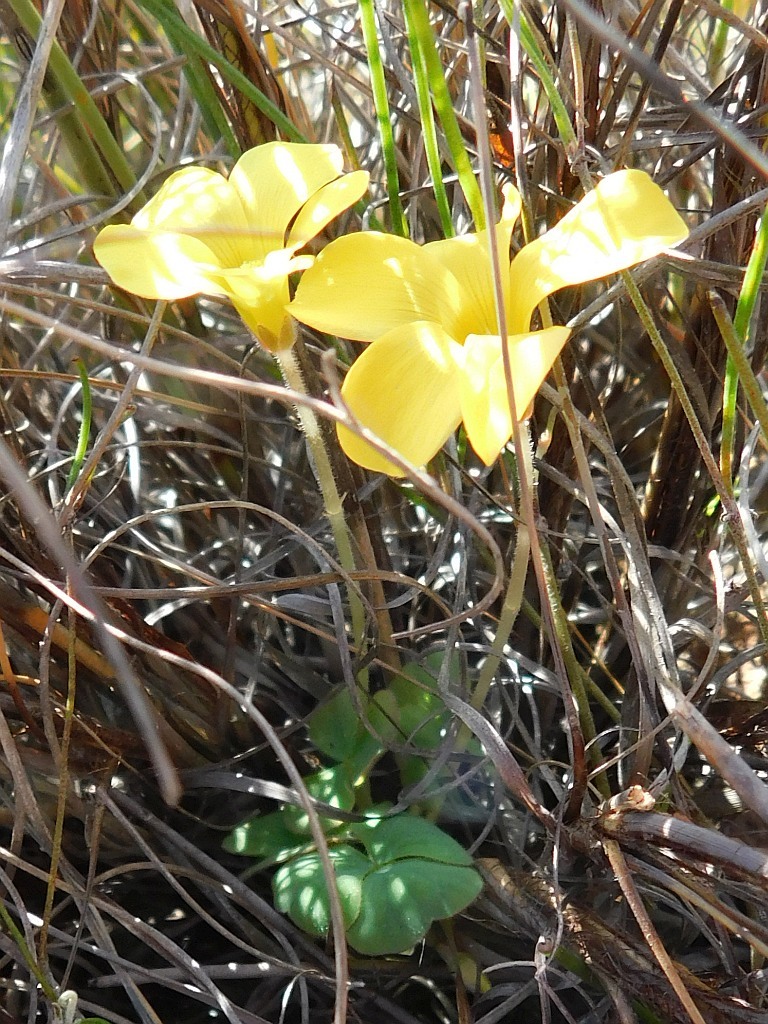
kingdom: Plantae
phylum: Tracheophyta
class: Magnoliopsida
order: Oxalidales
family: Oxalidaceae
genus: Oxalis
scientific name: Oxalis luteola
